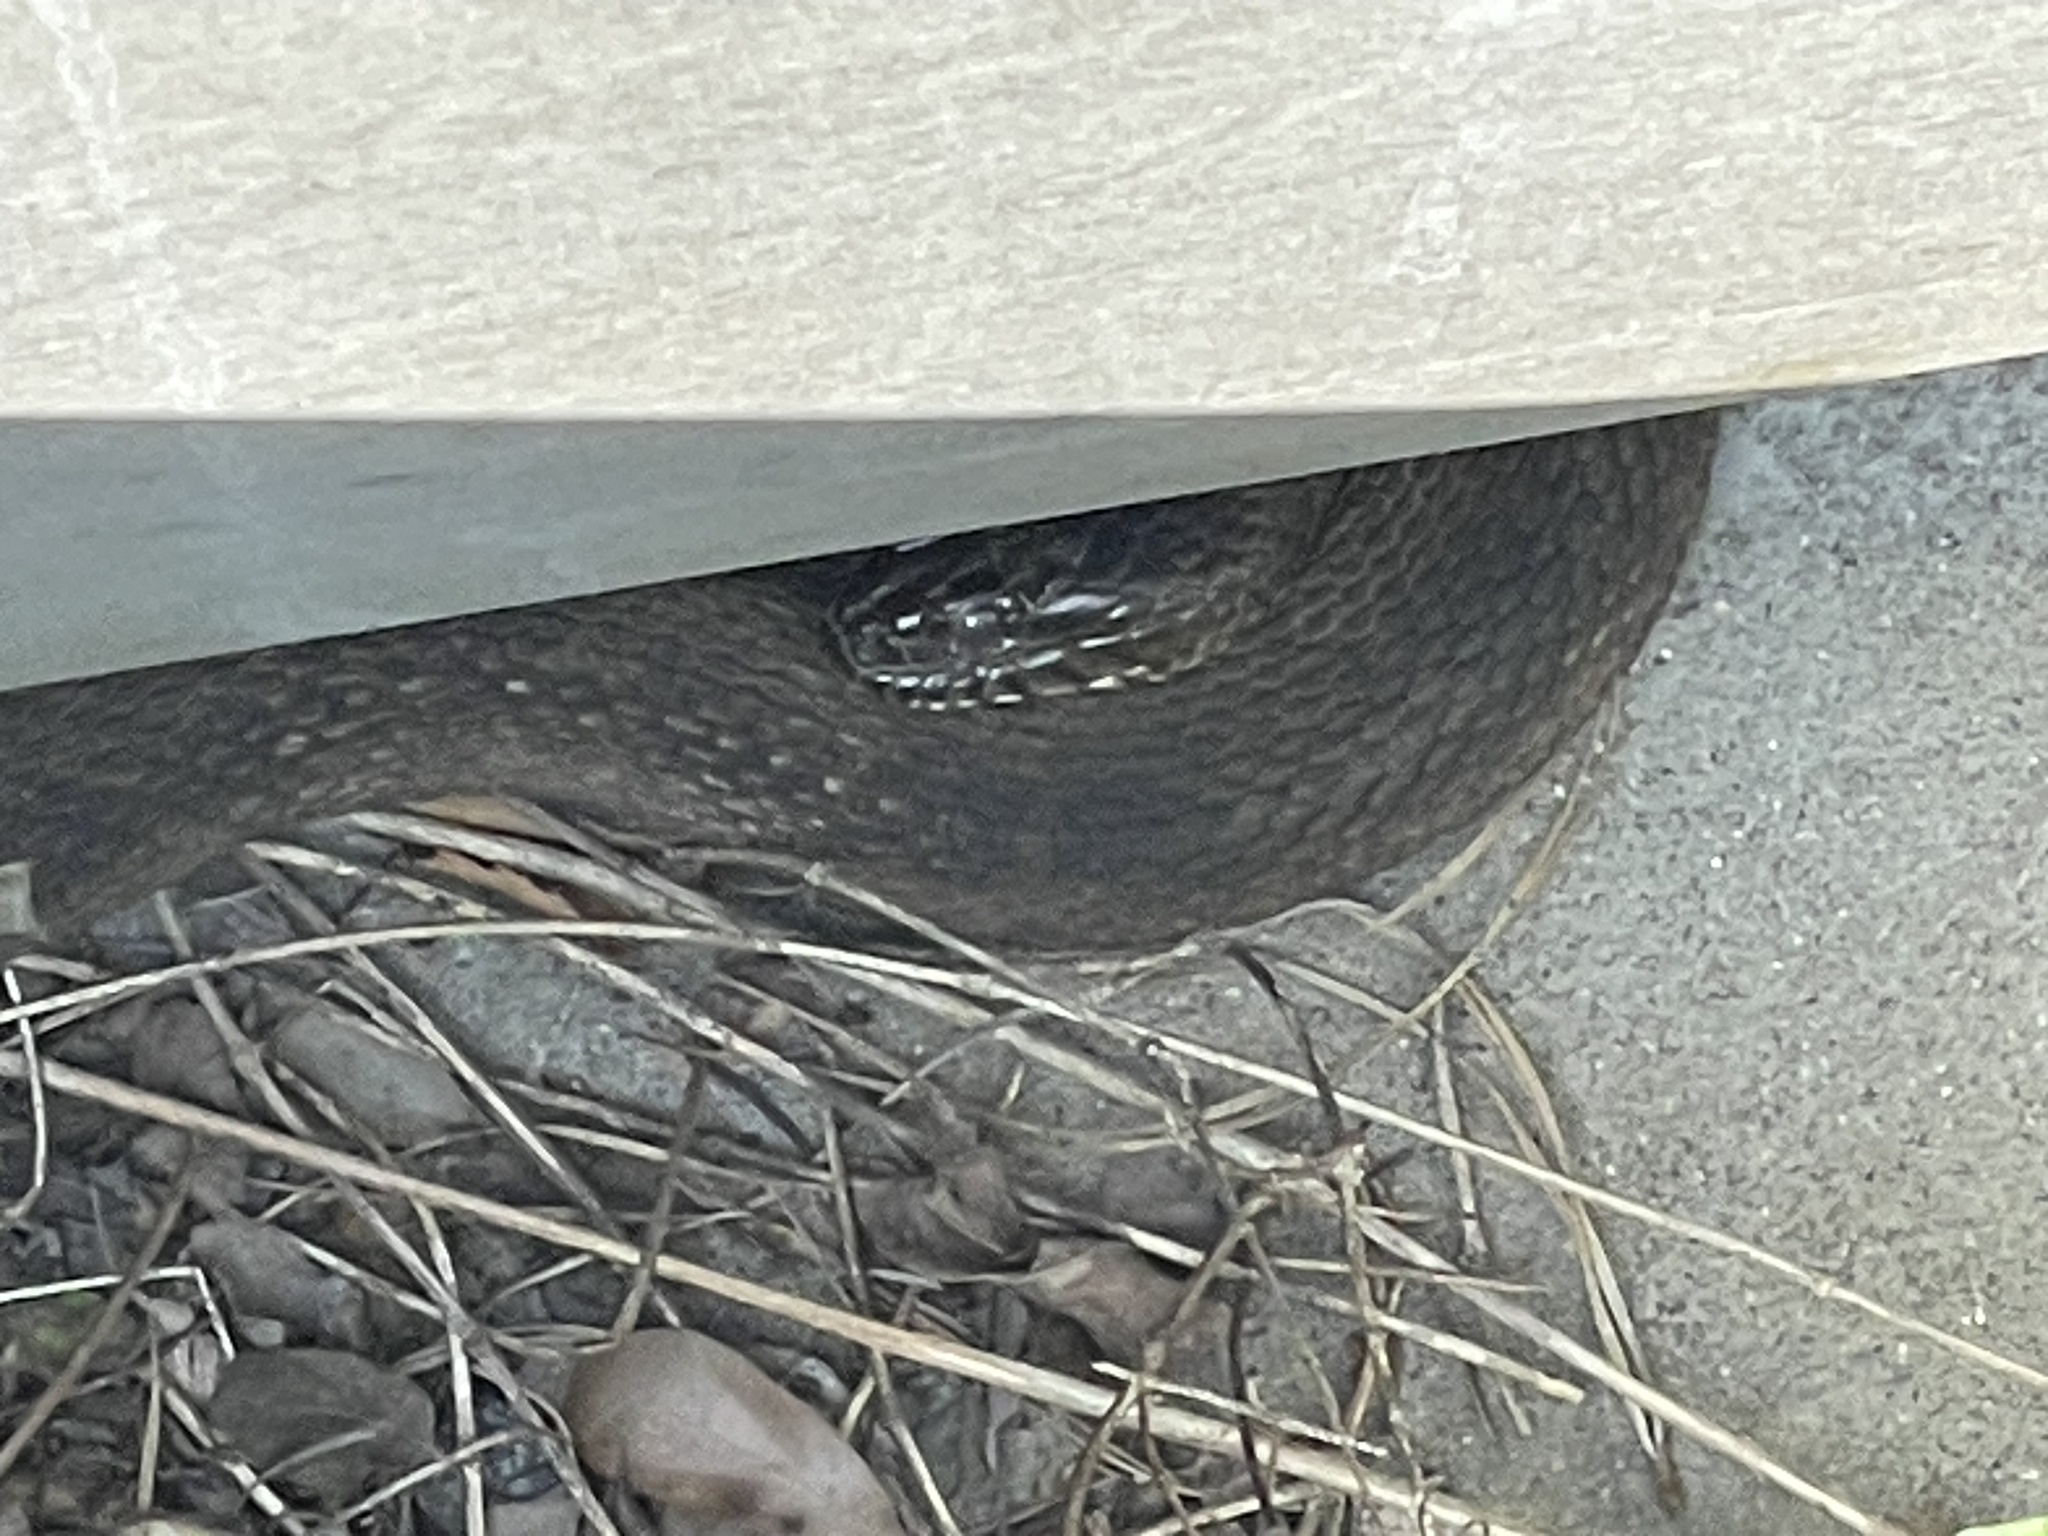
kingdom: Animalia
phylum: Chordata
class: Squamata
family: Colubridae
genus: Nerodia
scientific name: Nerodia sipedon
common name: Northern water snake
